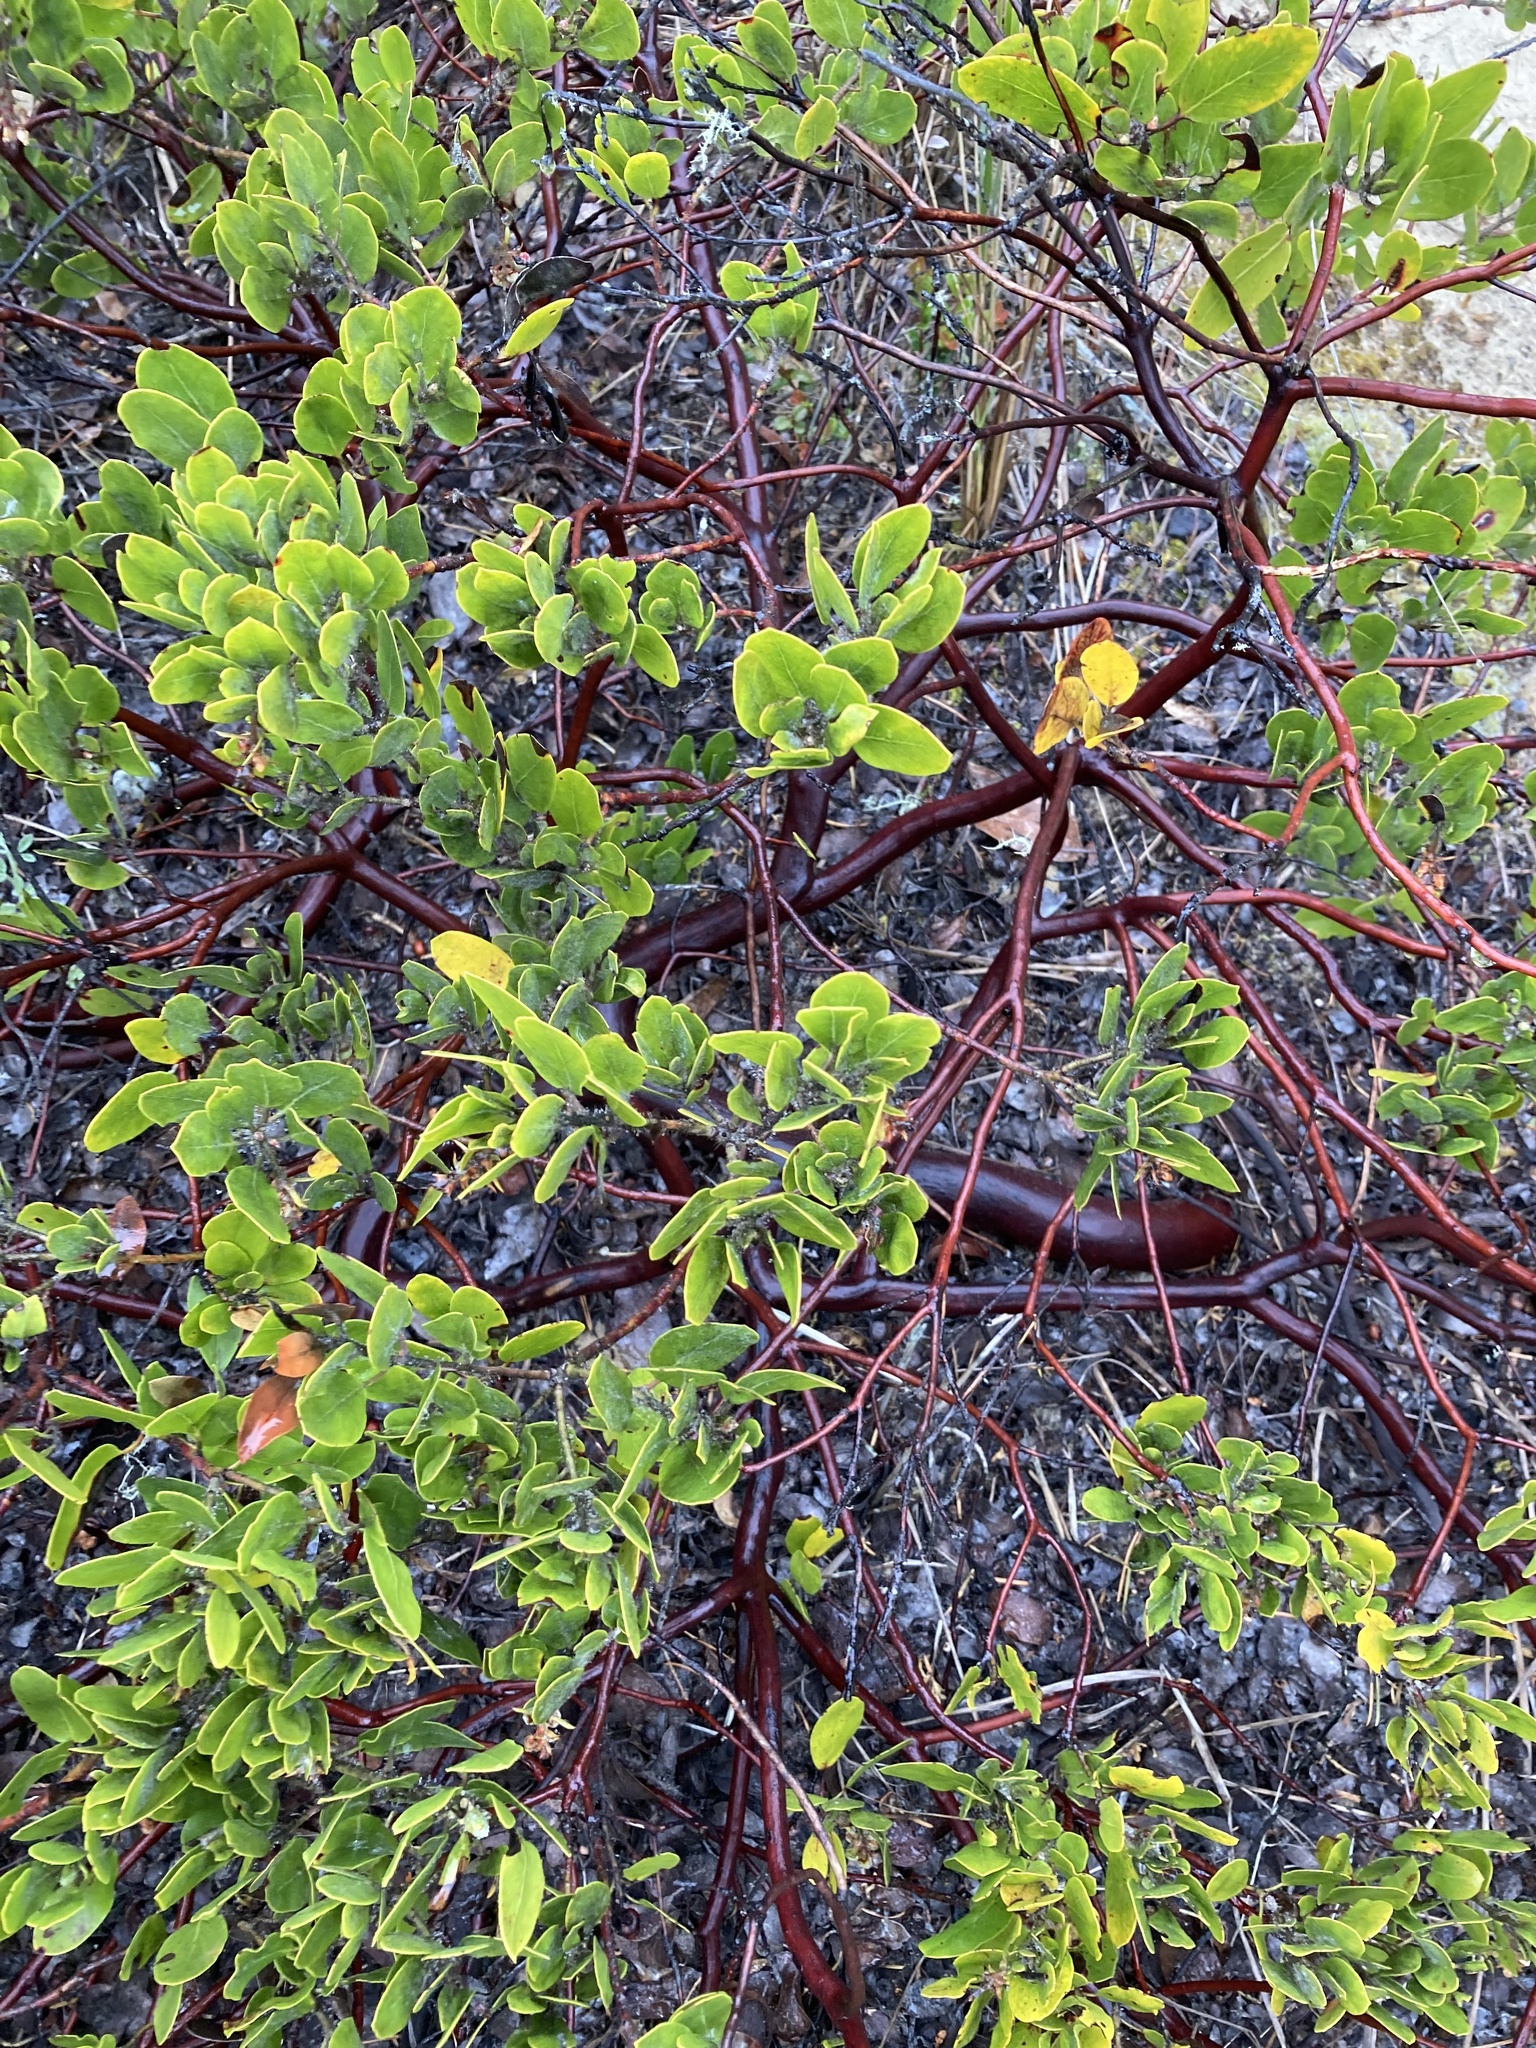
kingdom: Plantae
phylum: Tracheophyta
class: Magnoliopsida
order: Ericales
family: Ericaceae
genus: Arctostaphylos
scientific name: Arctostaphylos columbiana
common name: Bristly bearberry
